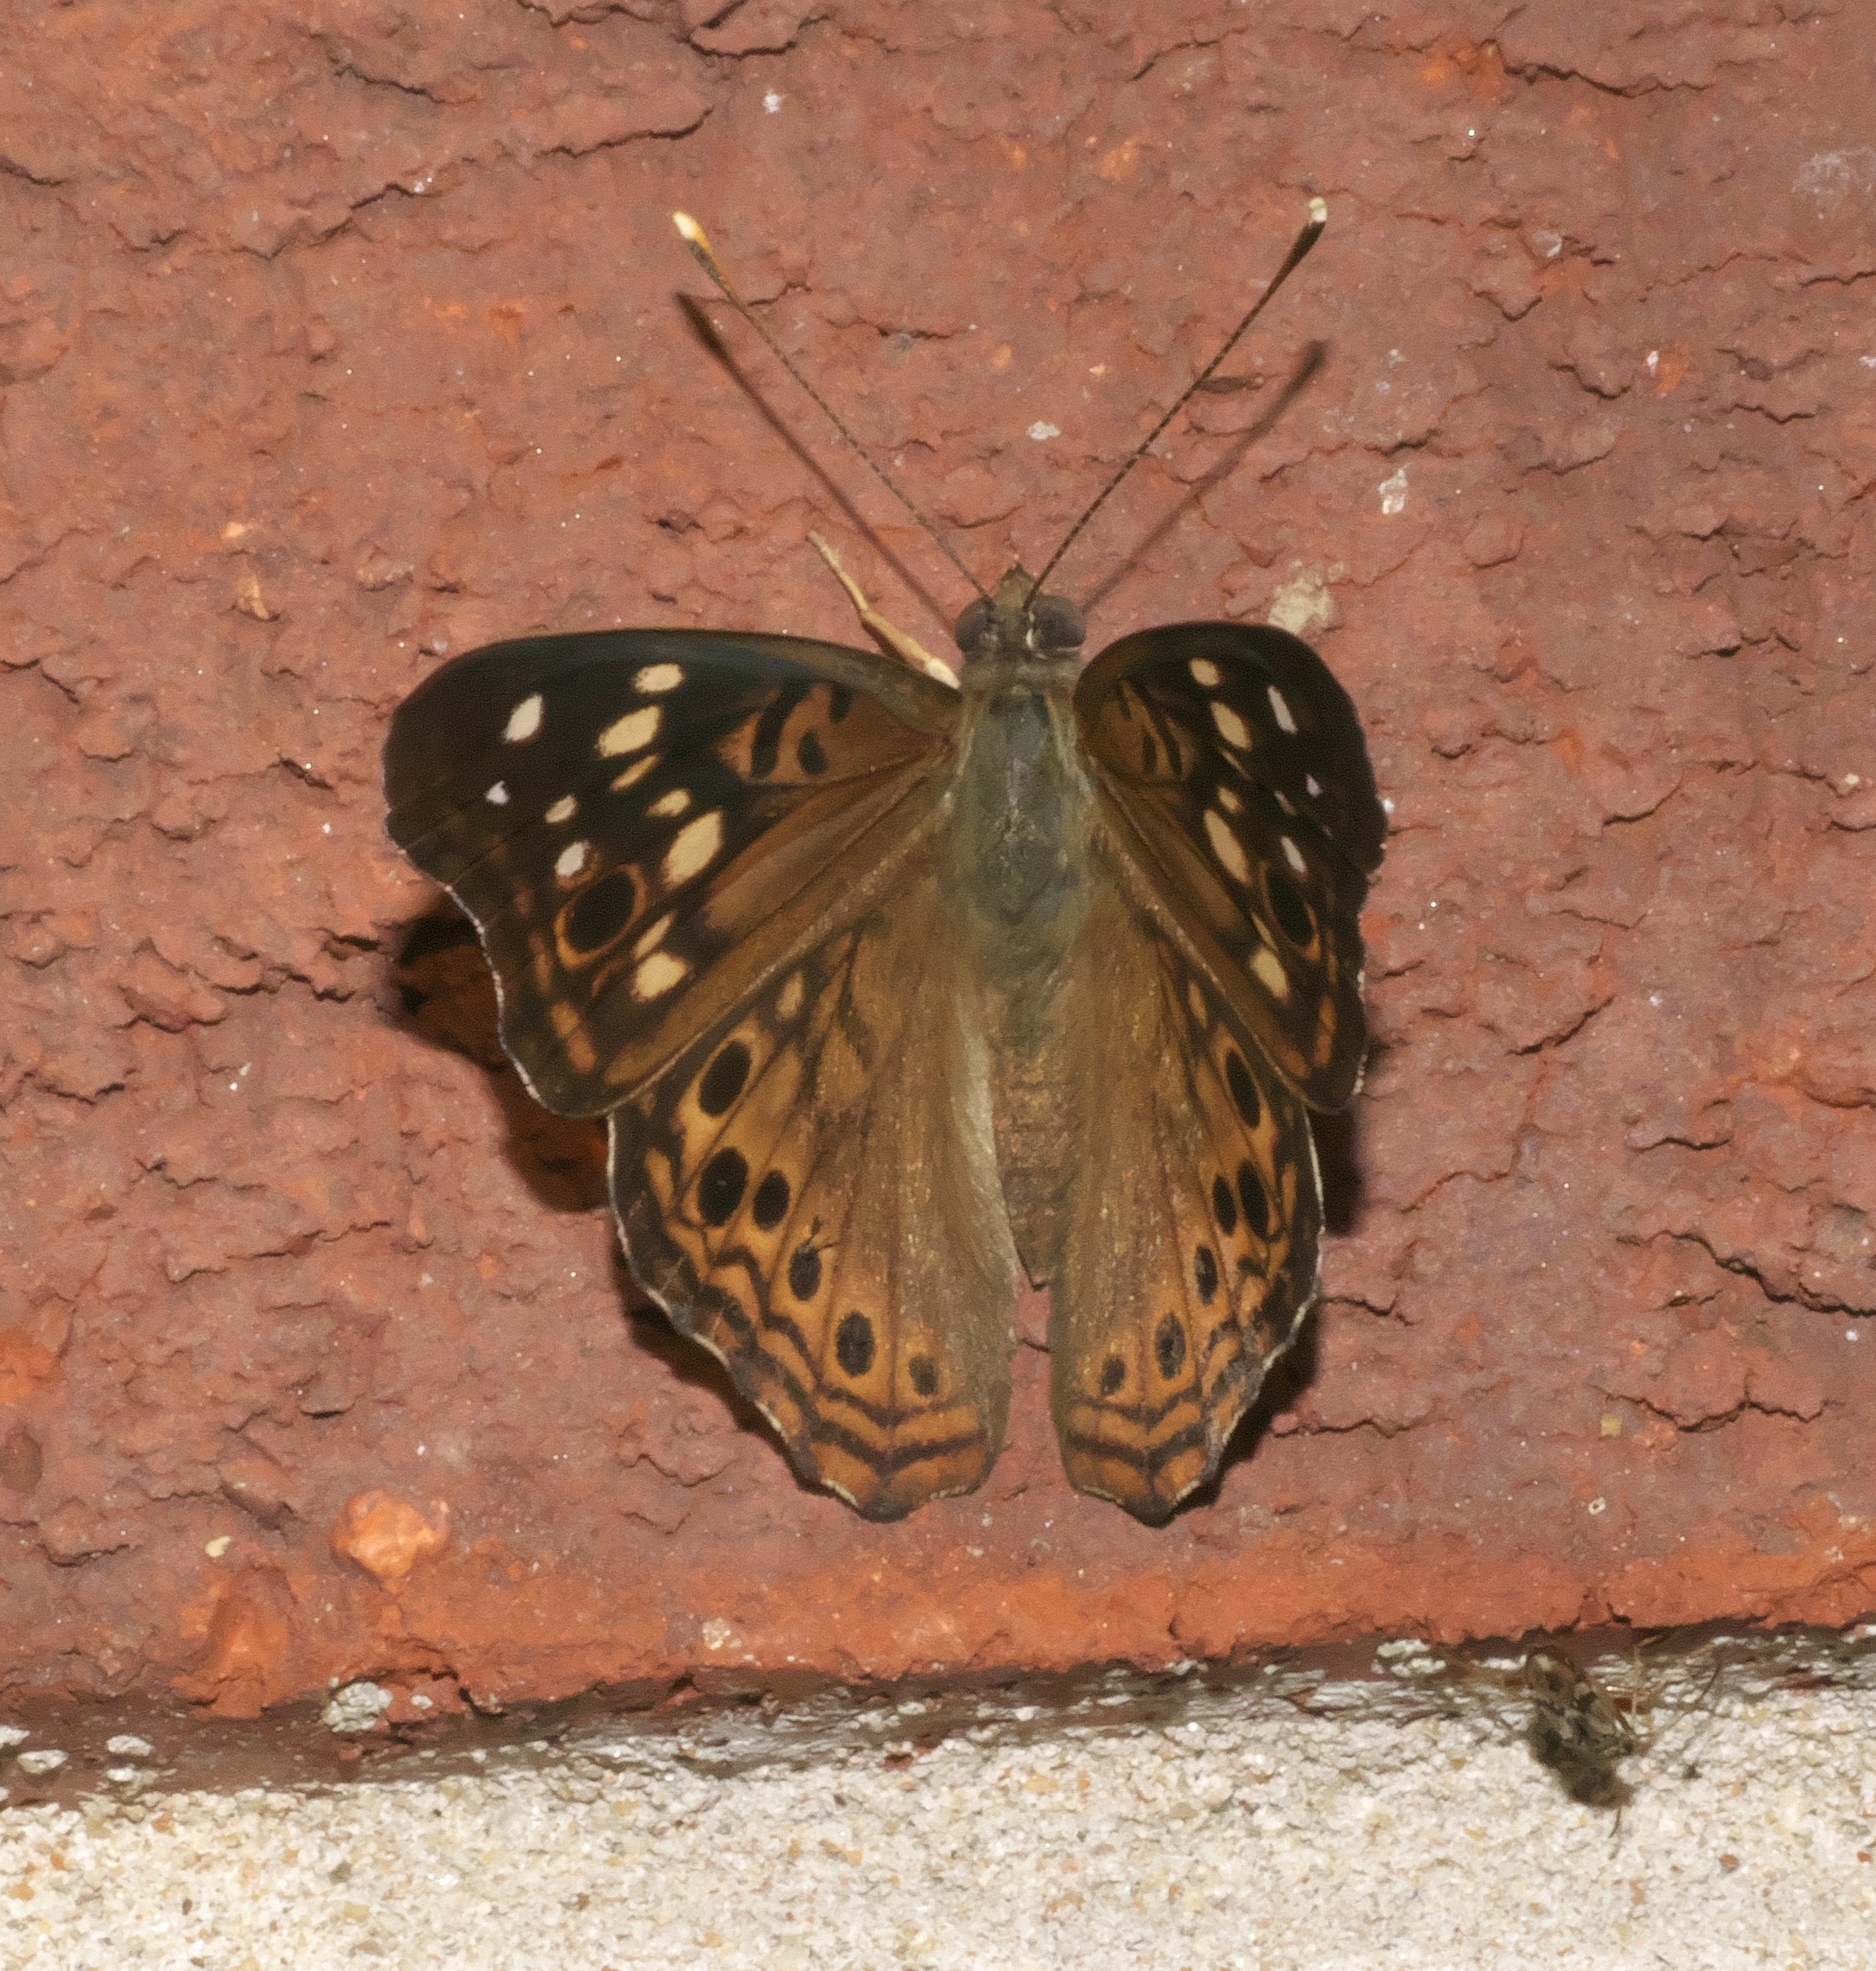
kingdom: Animalia
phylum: Arthropoda
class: Insecta
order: Lepidoptera
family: Nymphalidae
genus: Asterocampa
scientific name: Asterocampa celtis
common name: Hackberry emperor
